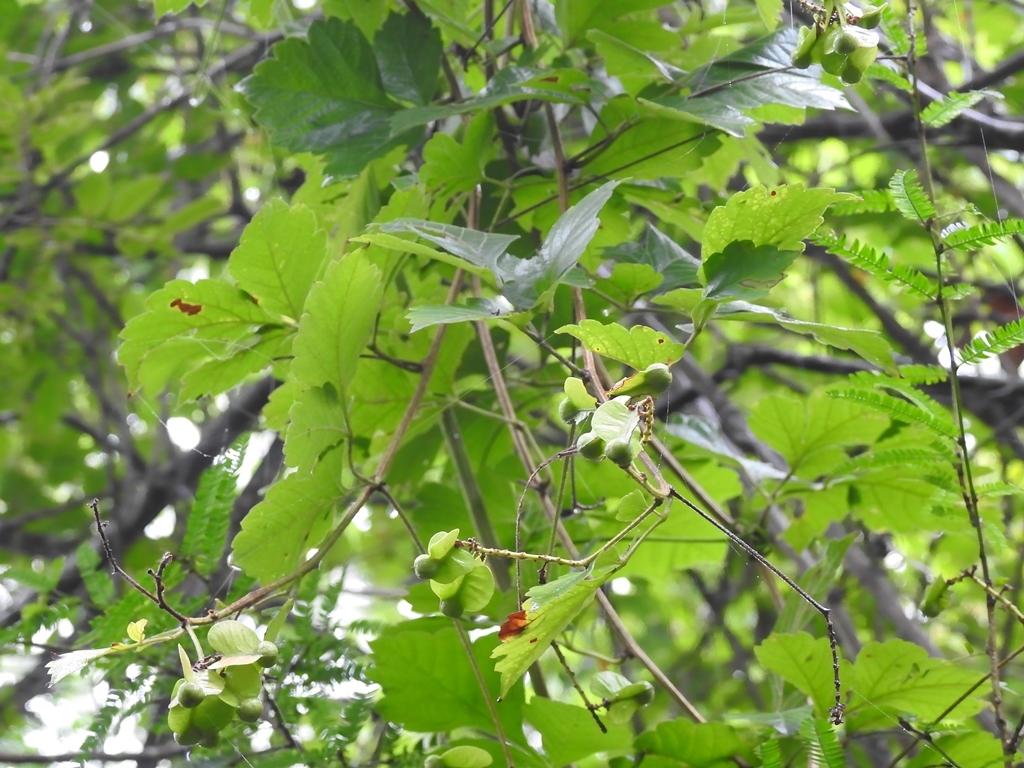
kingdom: Plantae
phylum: Tracheophyta
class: Magnoliopsida
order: Sapindales
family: Sapindaceae
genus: Serjania
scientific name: Serjania cardiospermoides
